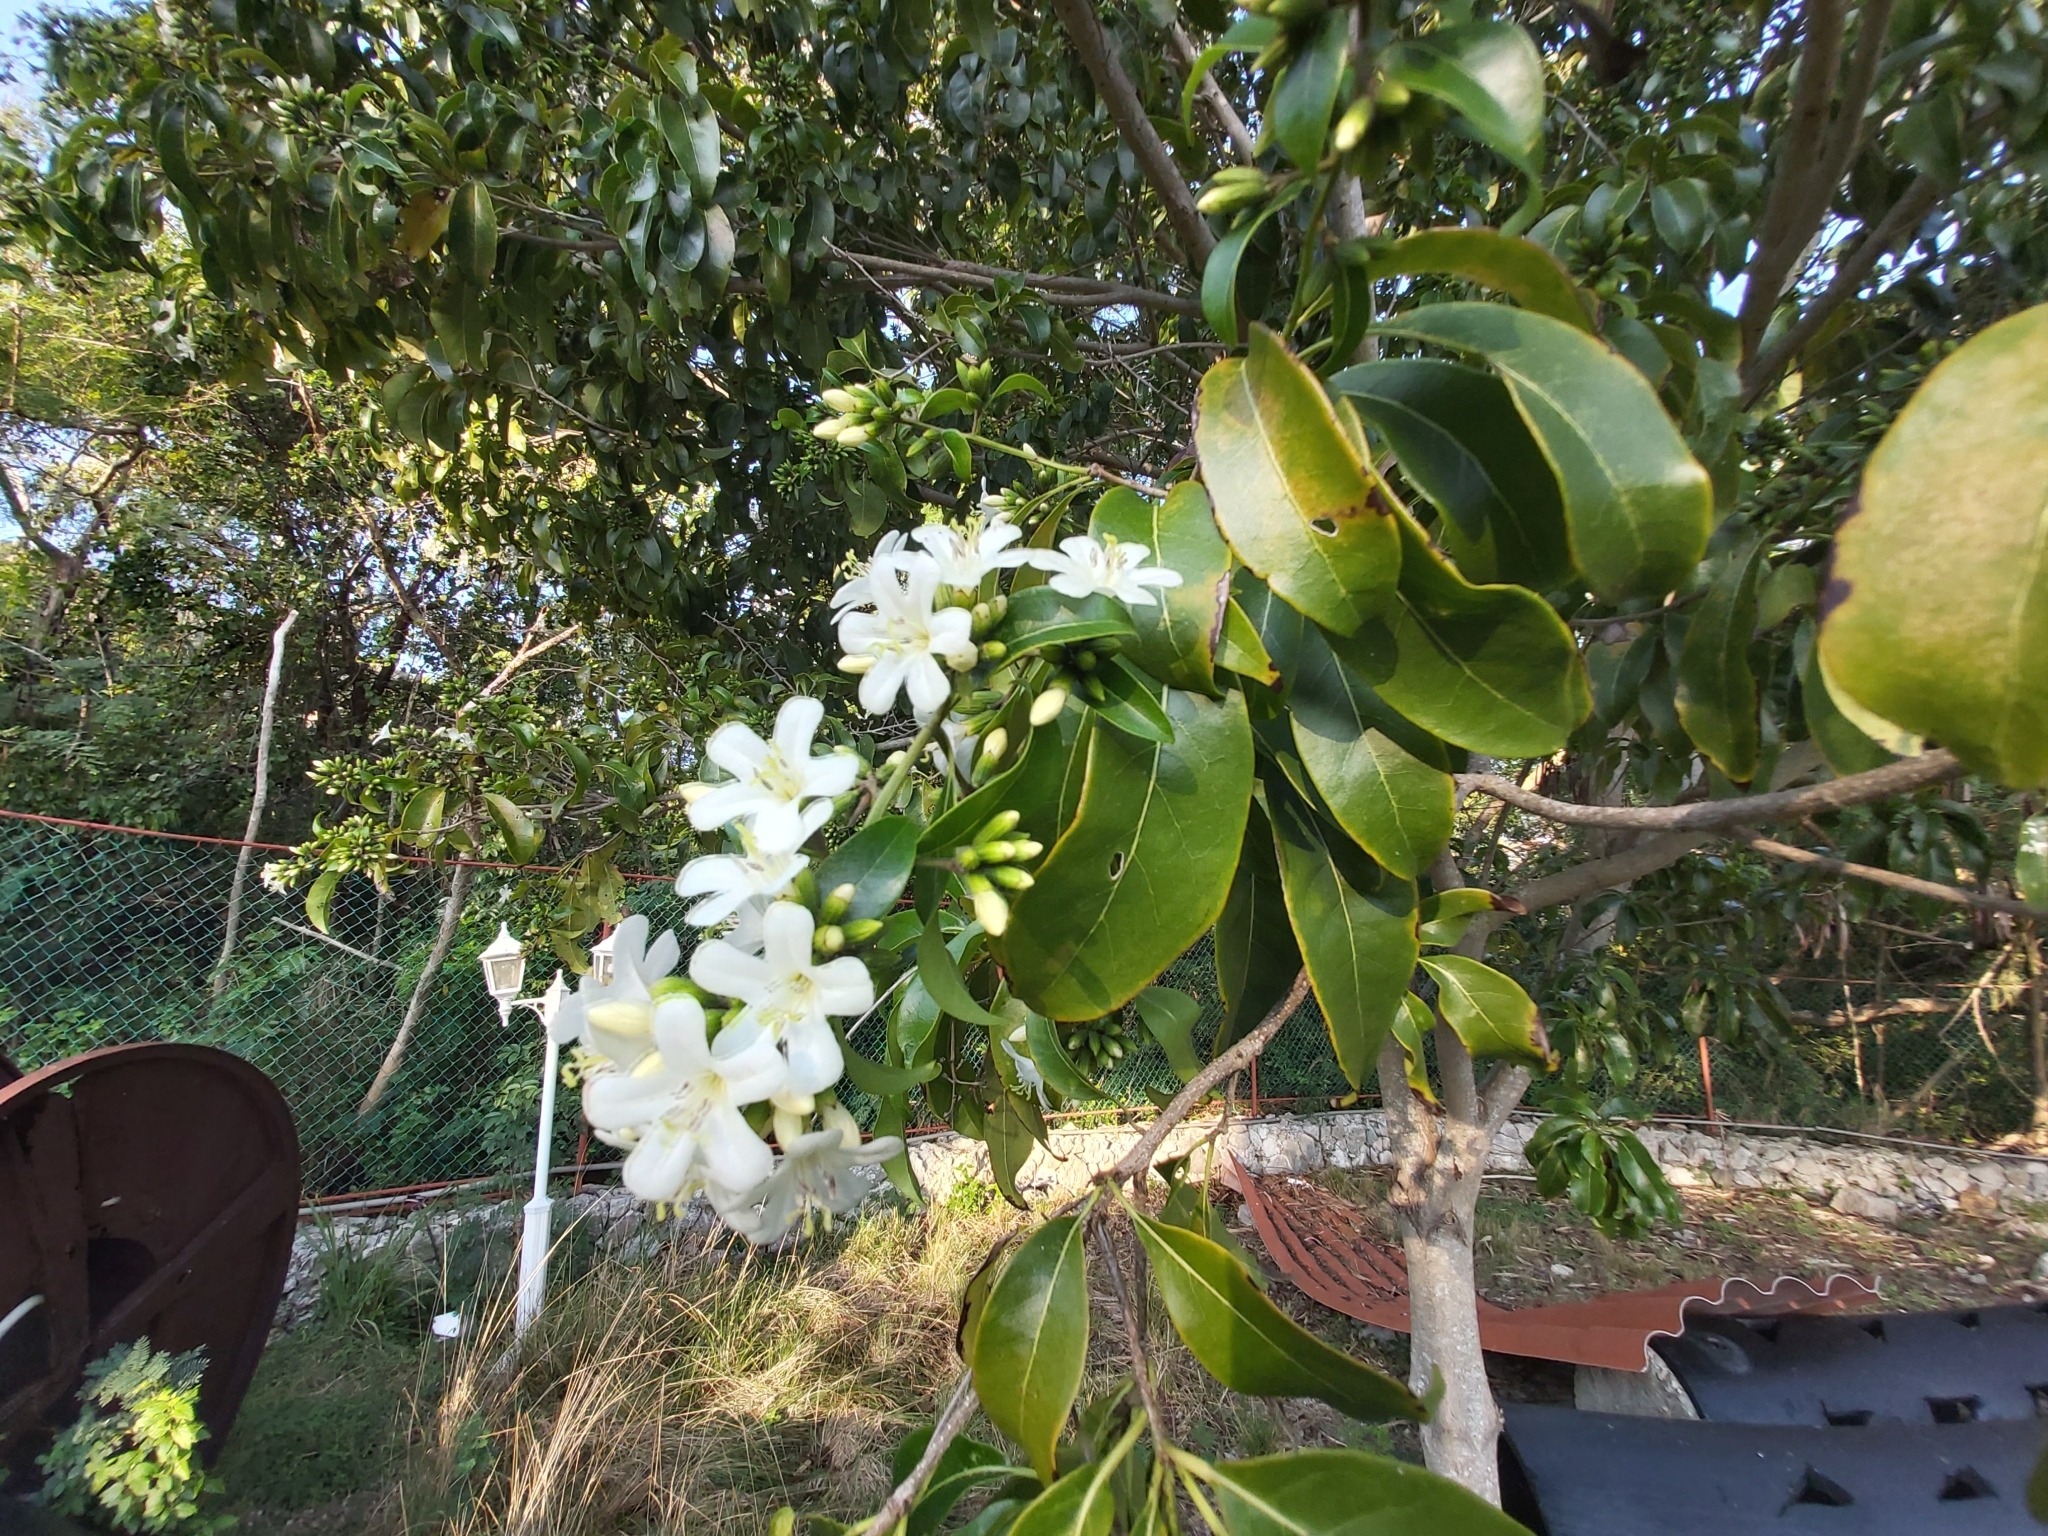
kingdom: Plantae
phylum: Tracheophyta
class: Magnoliopsida
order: Boraginales
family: Cordiaceae
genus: Cordia
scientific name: Cordia gerascanthus
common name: Baria
